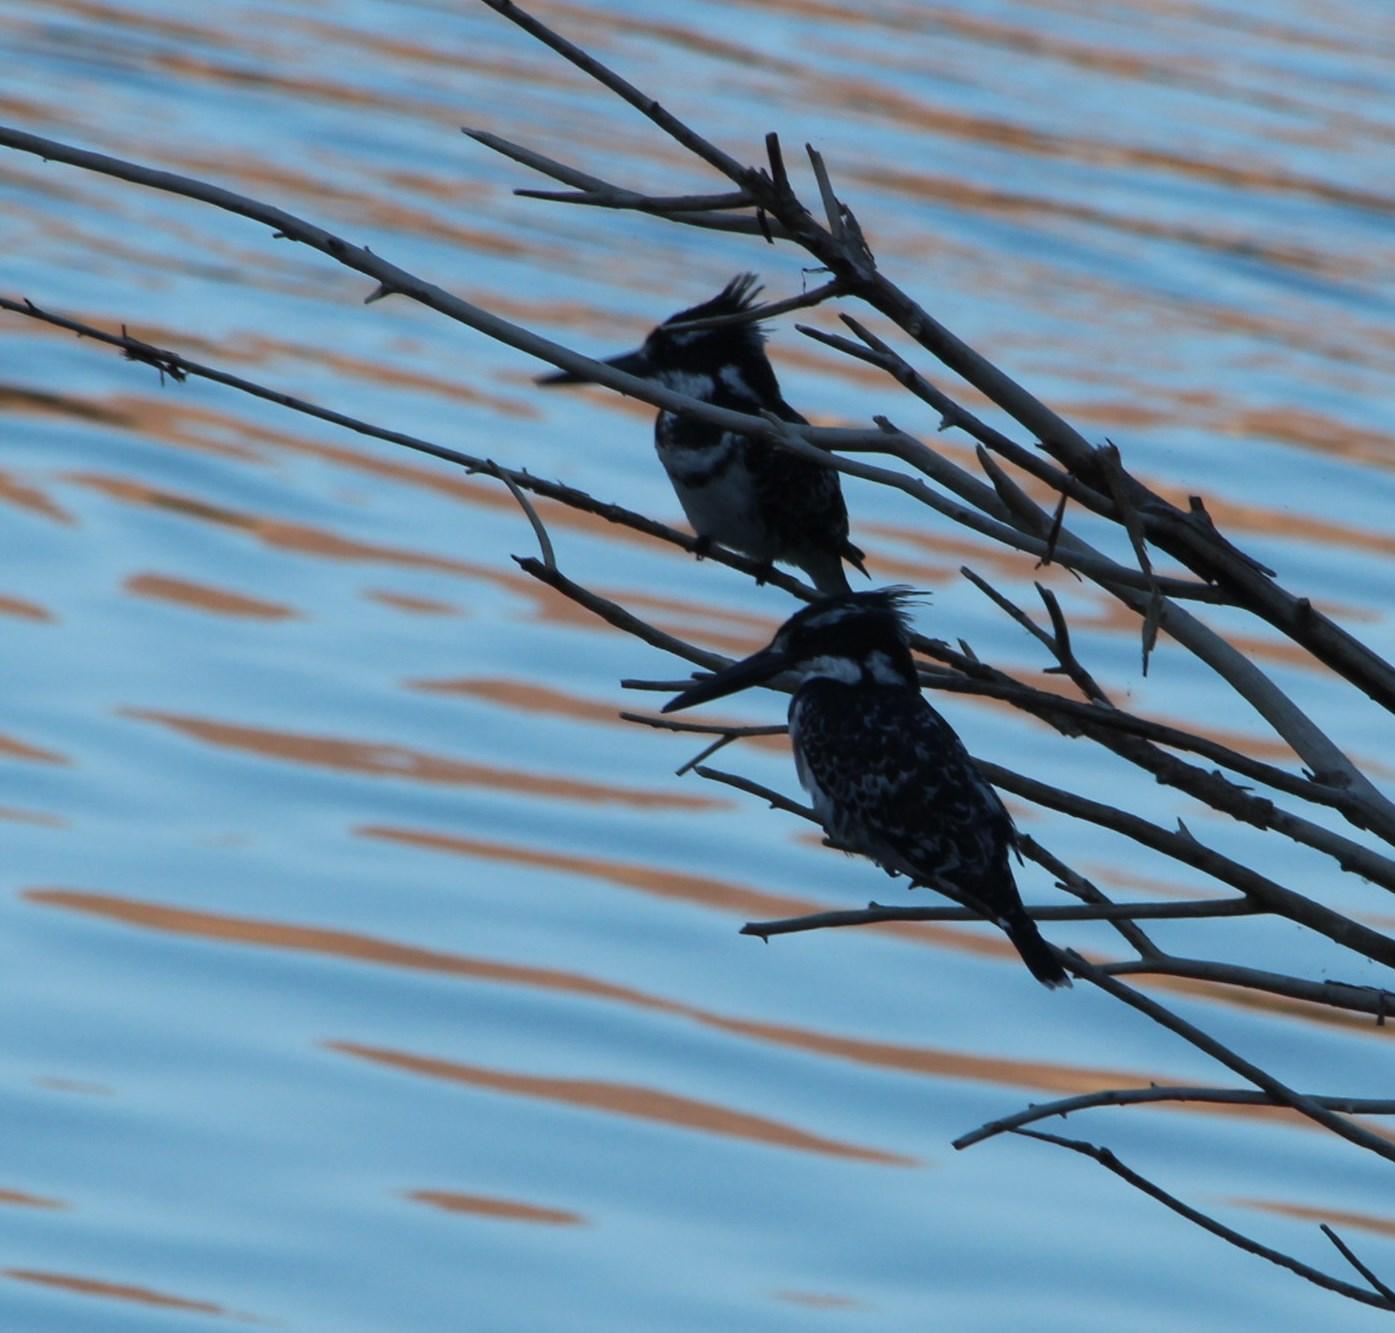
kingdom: Animalia
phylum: Chordata
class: Aves
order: Coraciiformes
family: Alcedinidae
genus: Ceryle
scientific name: Ceryle rudis
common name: Pied kingfisher
